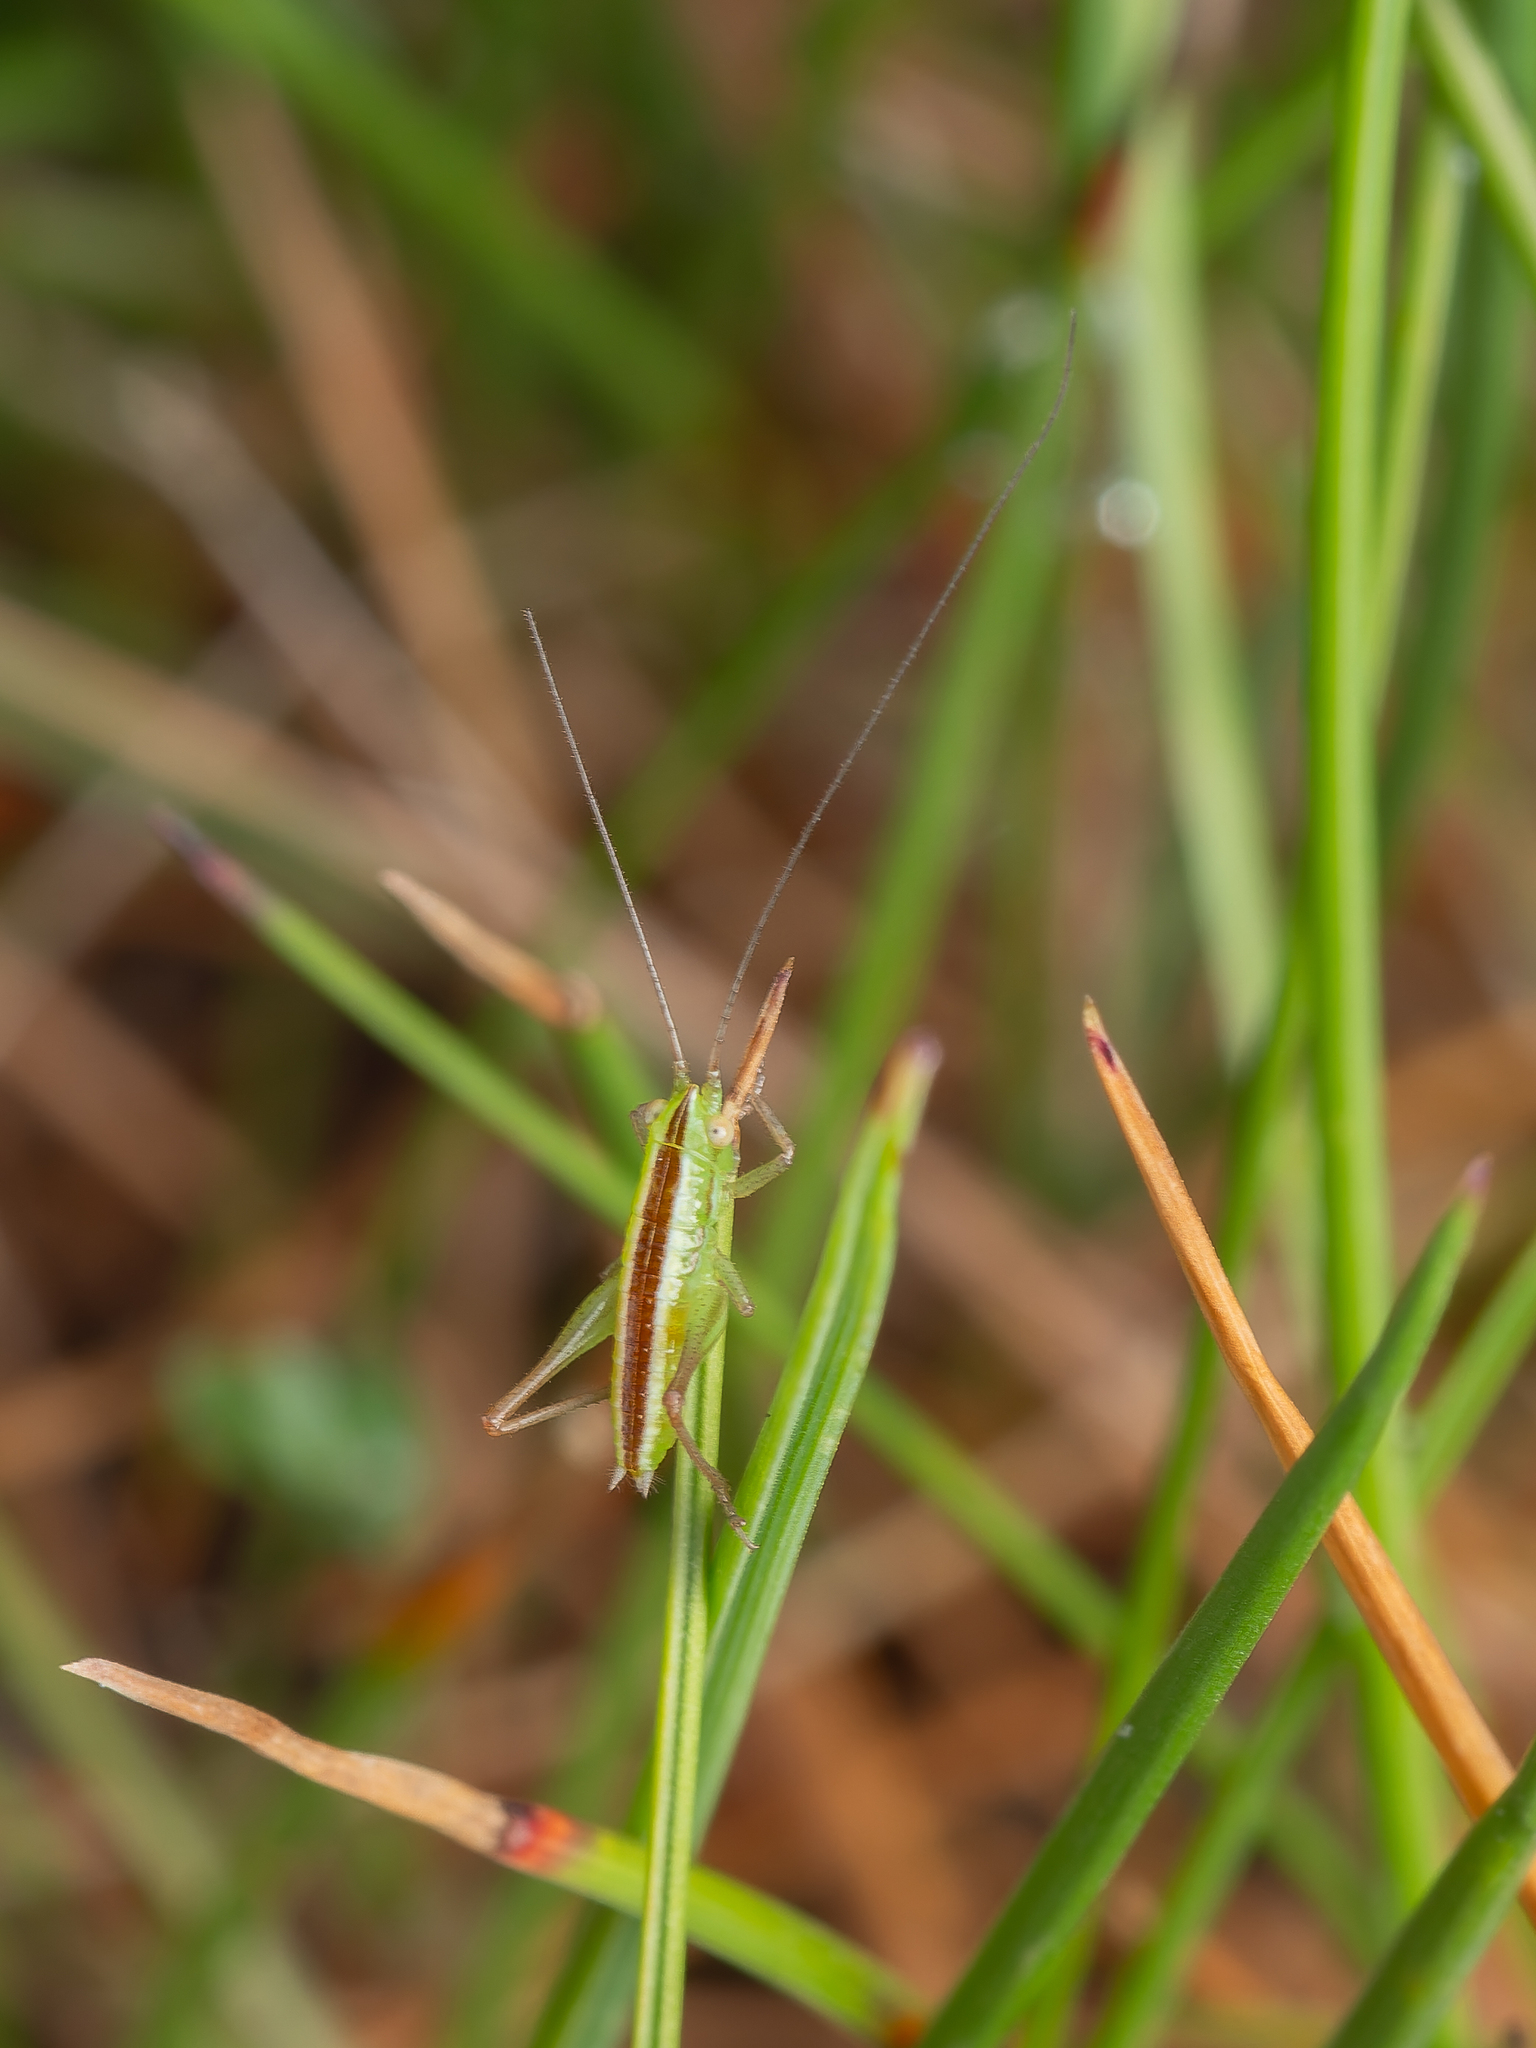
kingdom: Animalia
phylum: Arthropoda
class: Insecta
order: Orthoptera
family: Tettigoniidae
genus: Conocephalus
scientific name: Conocephalus bilineatus
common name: Small meadow katydid
